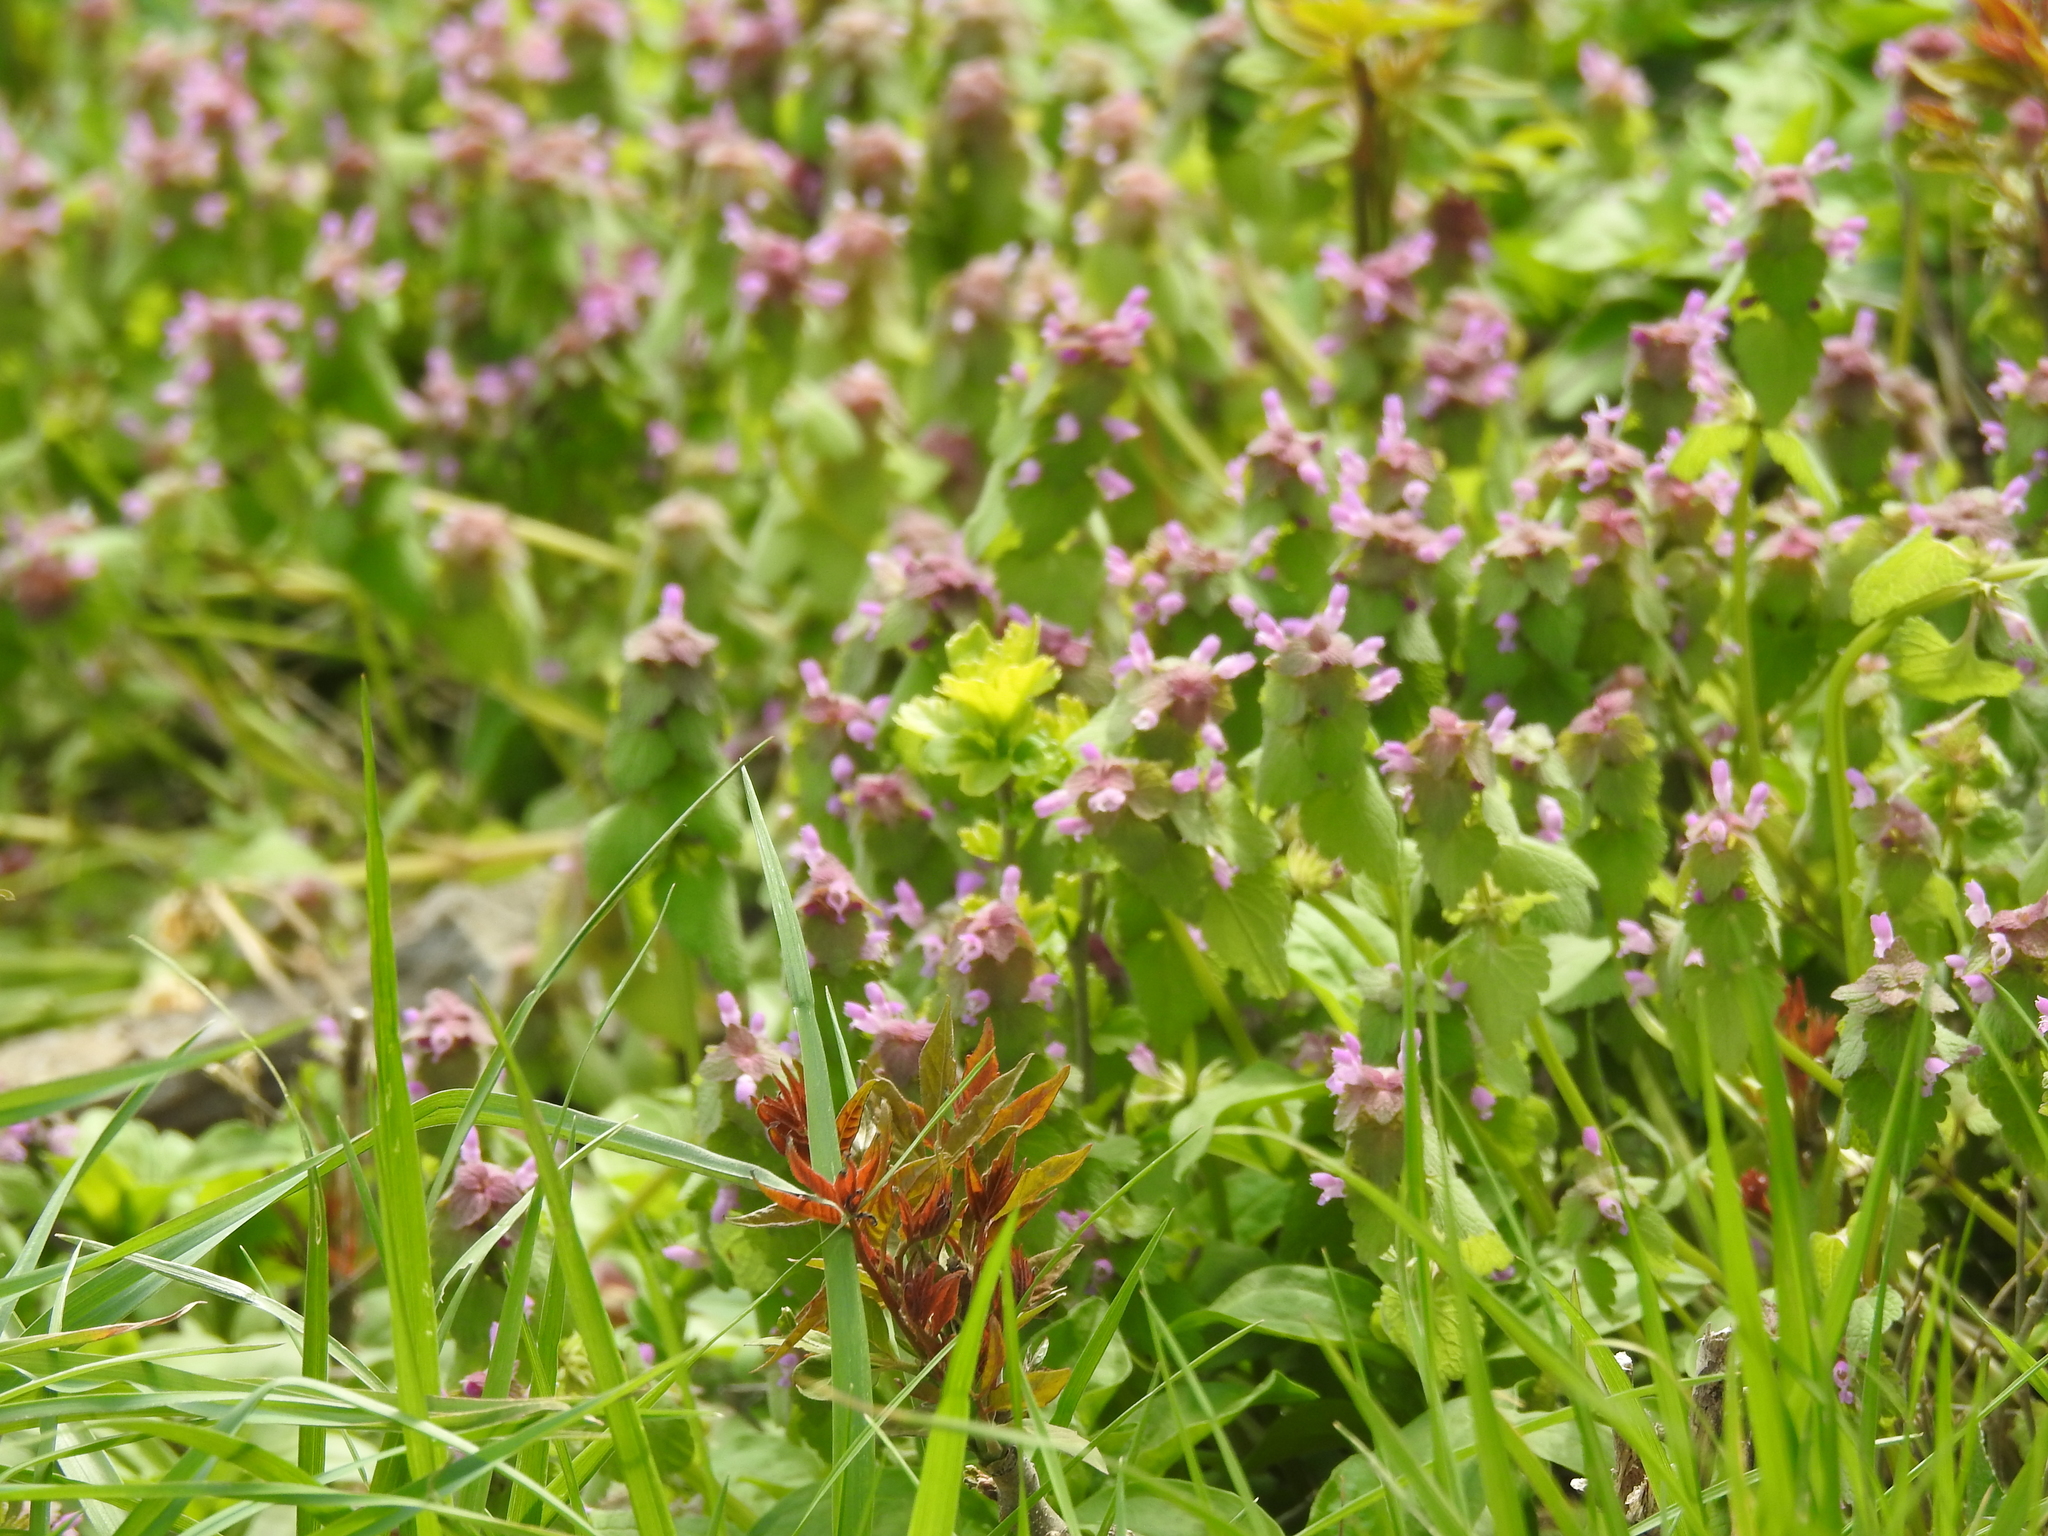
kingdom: Plantae
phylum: Tracheophyta
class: Magnoliopsida
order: Lamiales
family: Lamiaceae
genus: Lamium
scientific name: Lamium purpureum
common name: Red dead-nettle
